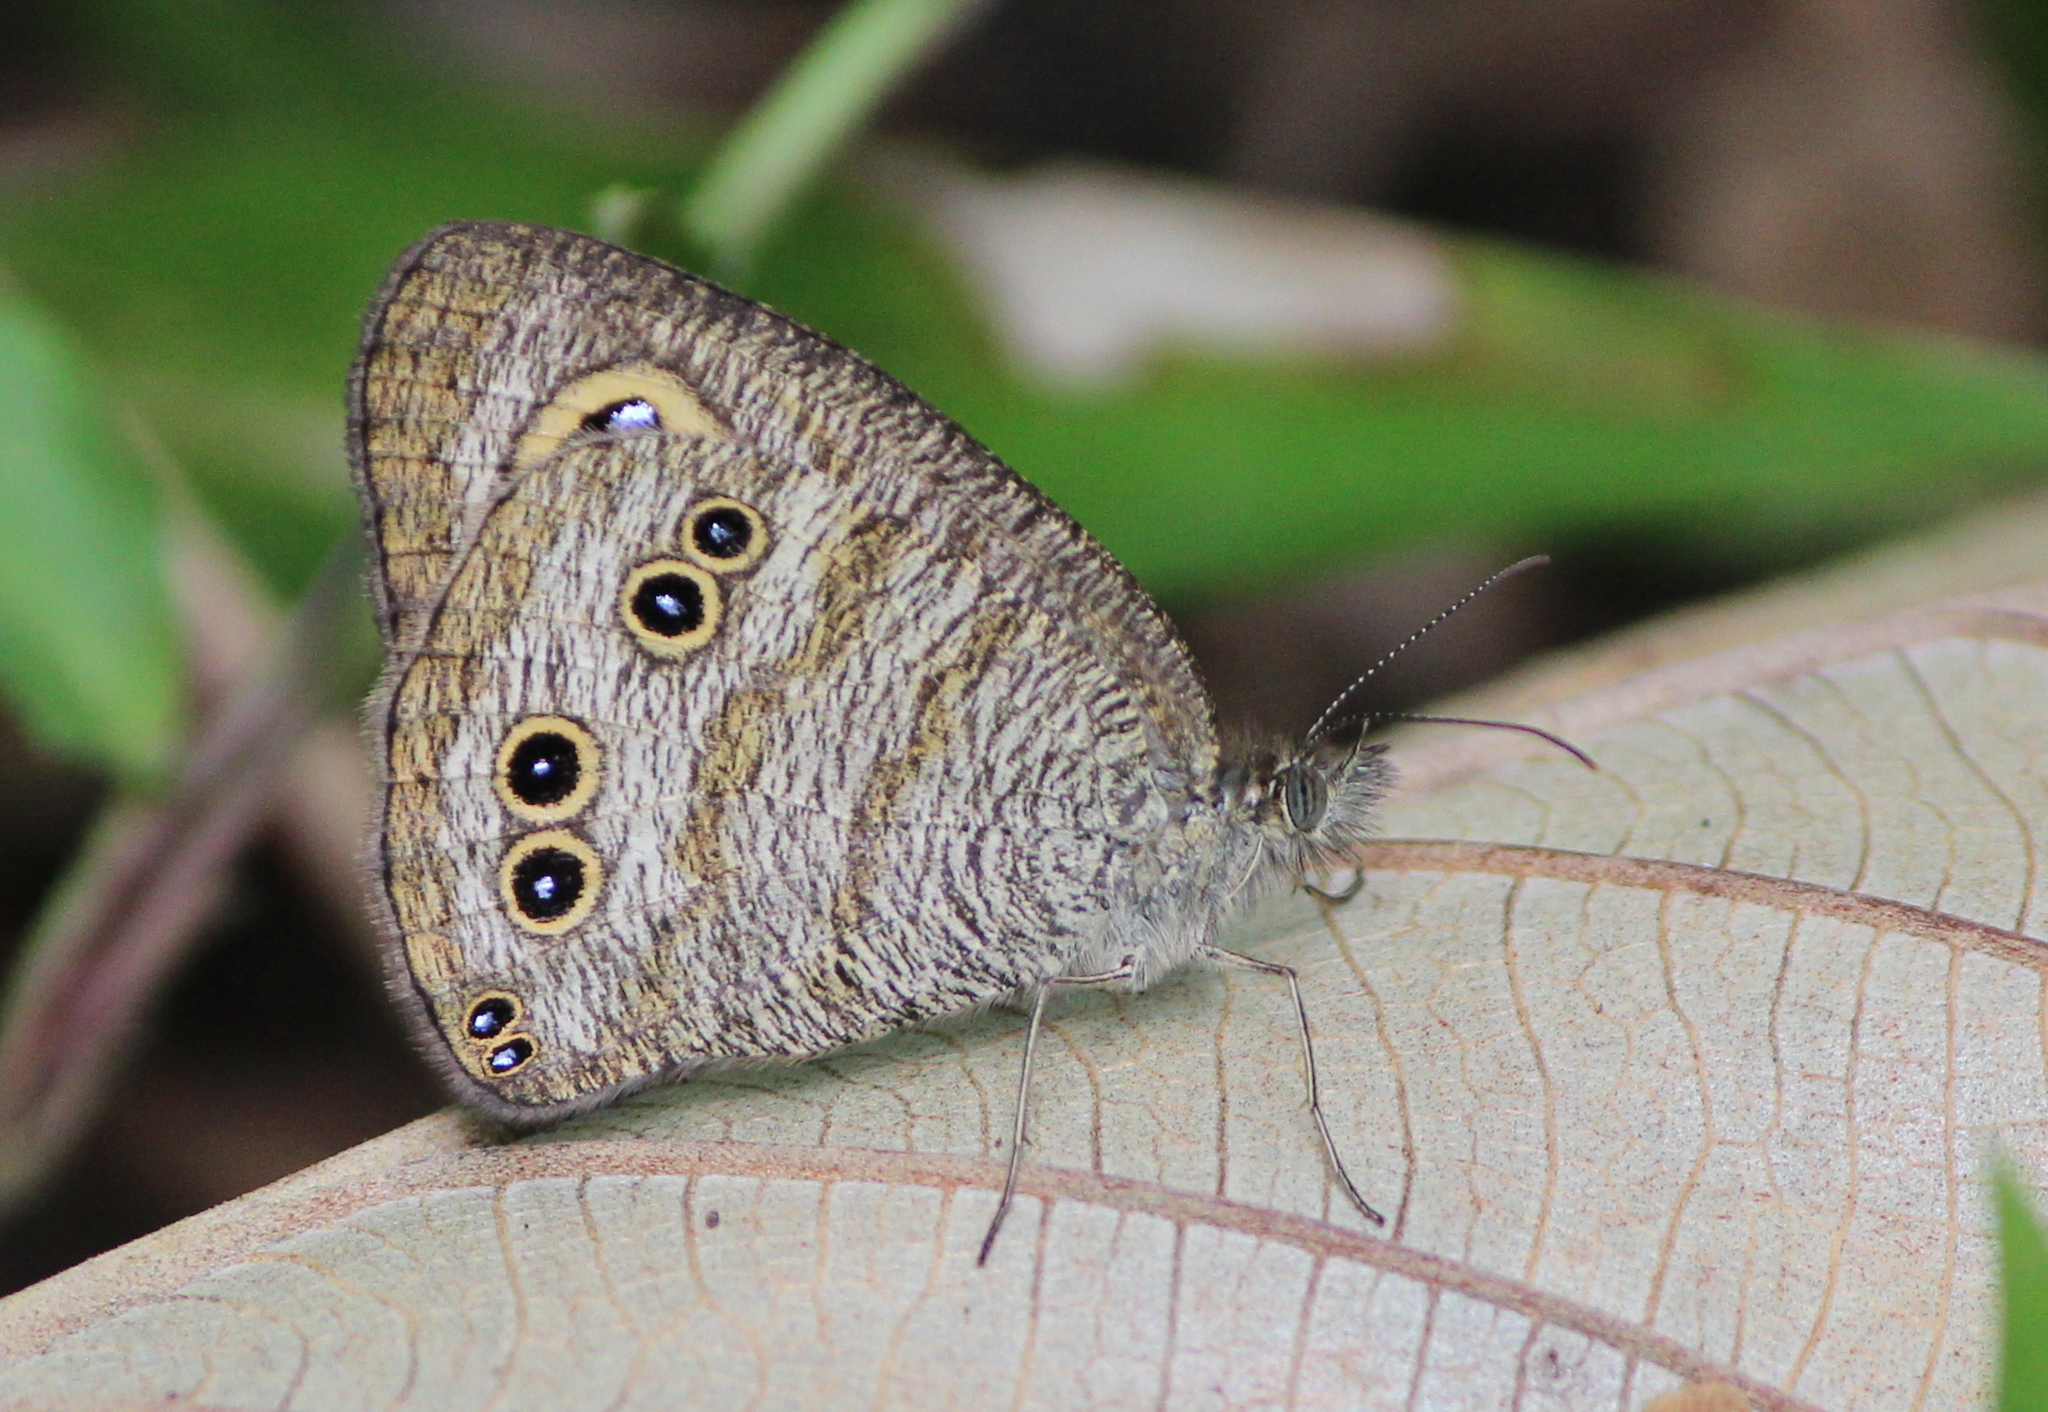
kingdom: Animalia
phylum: Arthropoda
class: Insecta
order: Lepidoptera
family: Nymphalidae
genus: Ypthima
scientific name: Ypthima baldus
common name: Common five-ring
